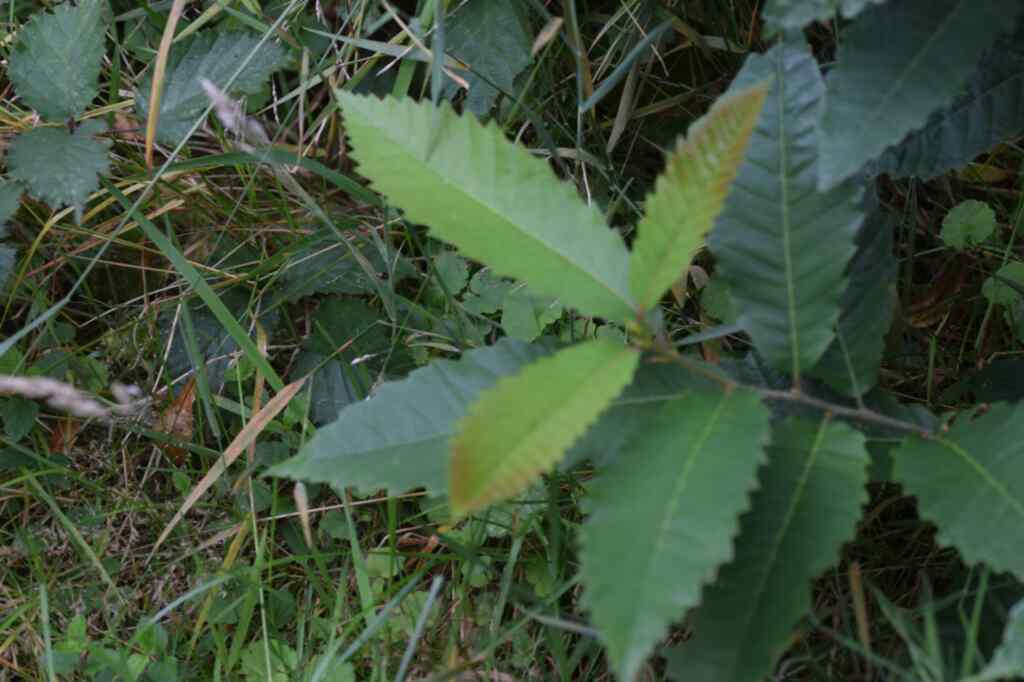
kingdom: Plantae
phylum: Tracheophyta
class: Magnoliopsida
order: Fagales
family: Fagaceae
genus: Castanea
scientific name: Castanea sativa
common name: Sweet chestnut
